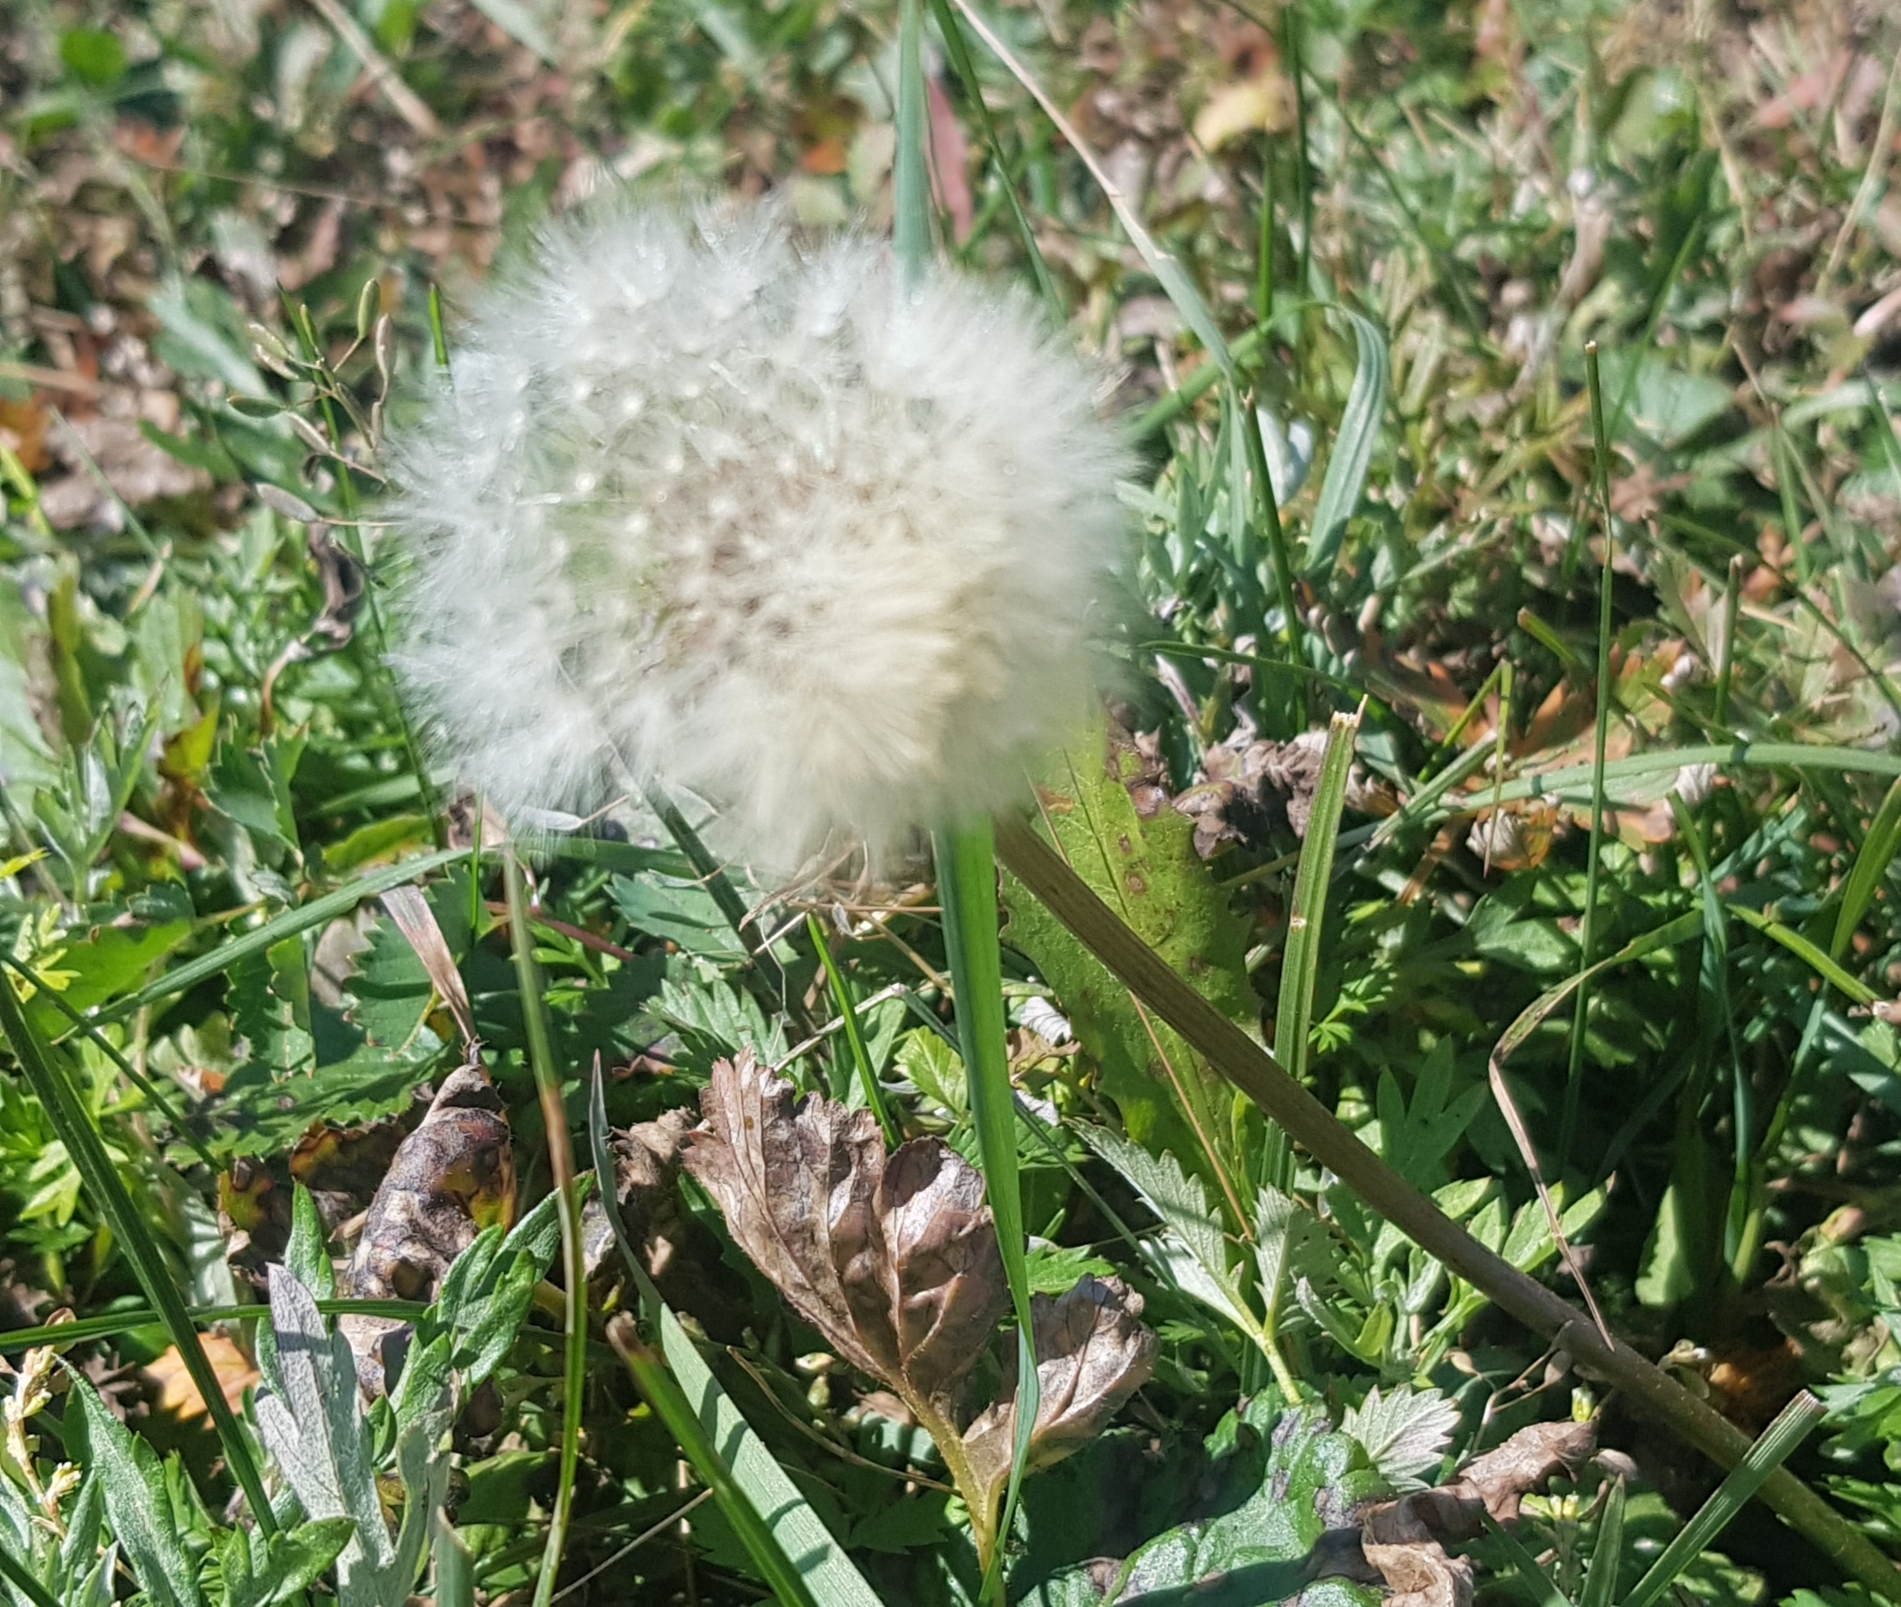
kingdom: Plantae
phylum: Tracheophyta
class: Magnoliopsida
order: Asterales
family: Asteraceae
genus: Taraxacum
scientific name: Taraxacum officinale
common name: Common dandelion
